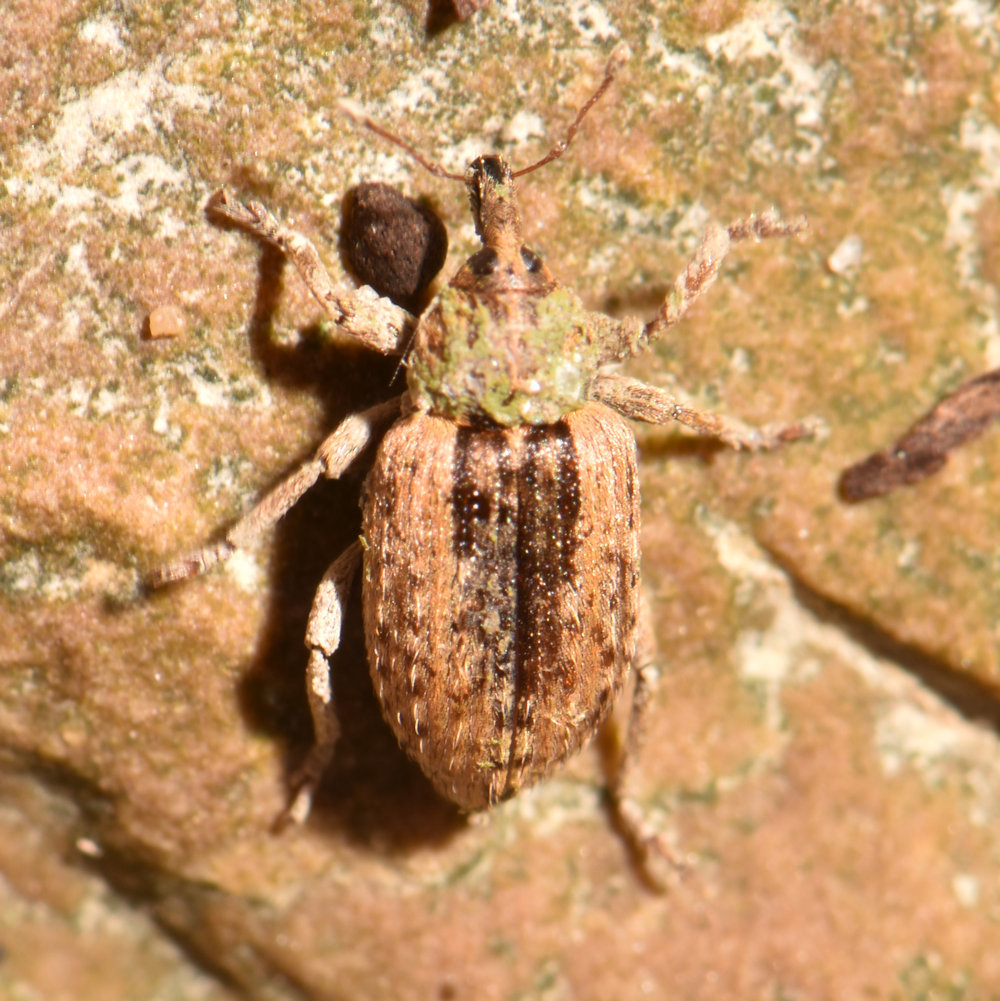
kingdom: Animalia
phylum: Arthropoda
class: Insecta
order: Coleoptera
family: Curculionidae
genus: Hypera
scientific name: Hypera postica
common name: Weevil
